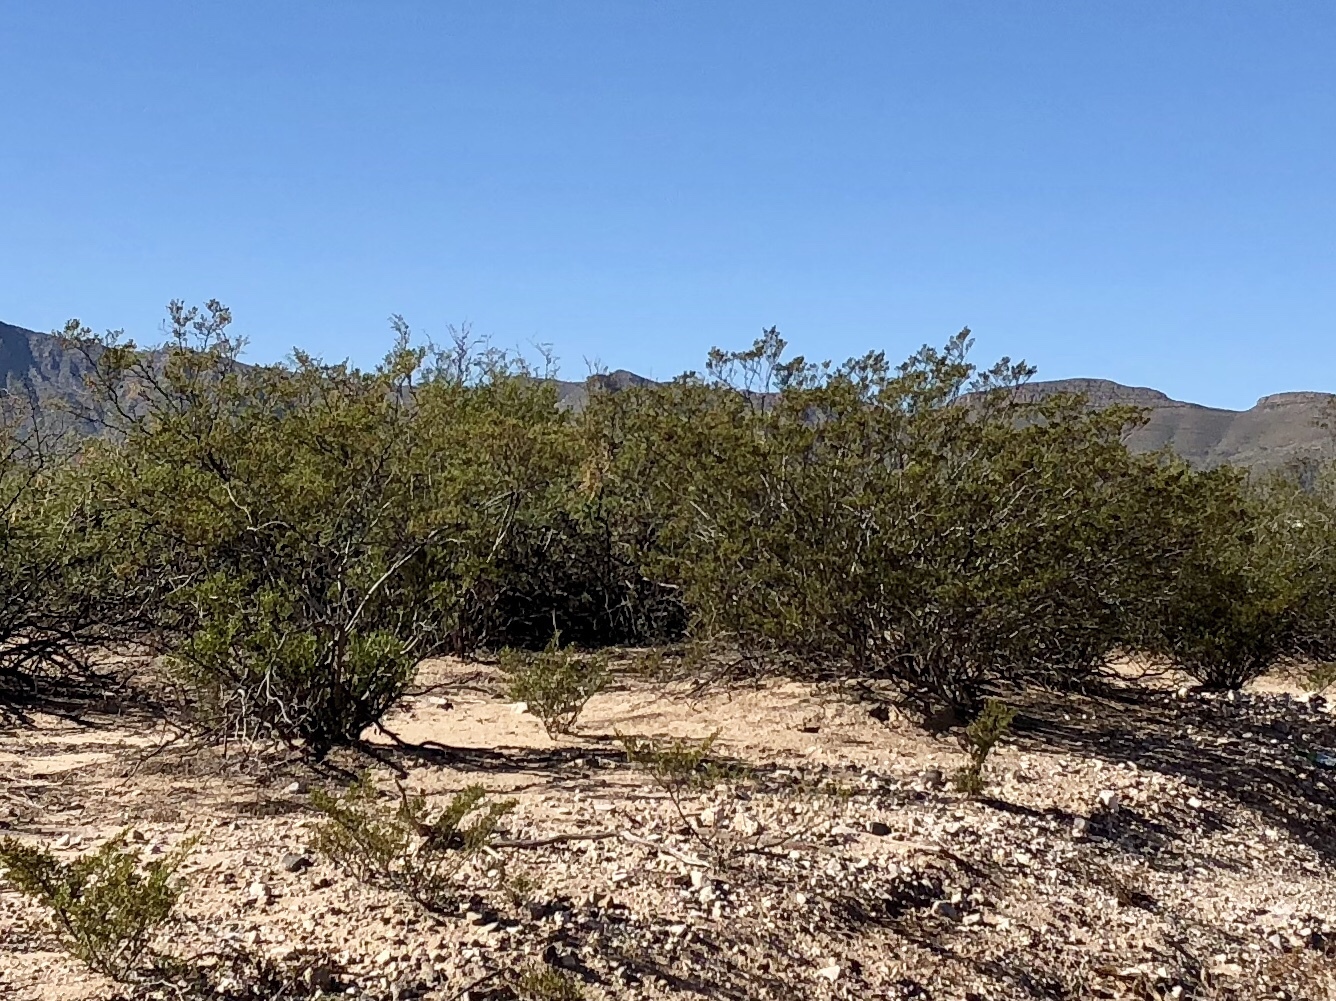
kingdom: Plantae
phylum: Tracheophyta
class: Magnoliopsida
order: Zygophyllales
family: Zygophyllaceae
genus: Larrea
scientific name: Larrea tridentata
